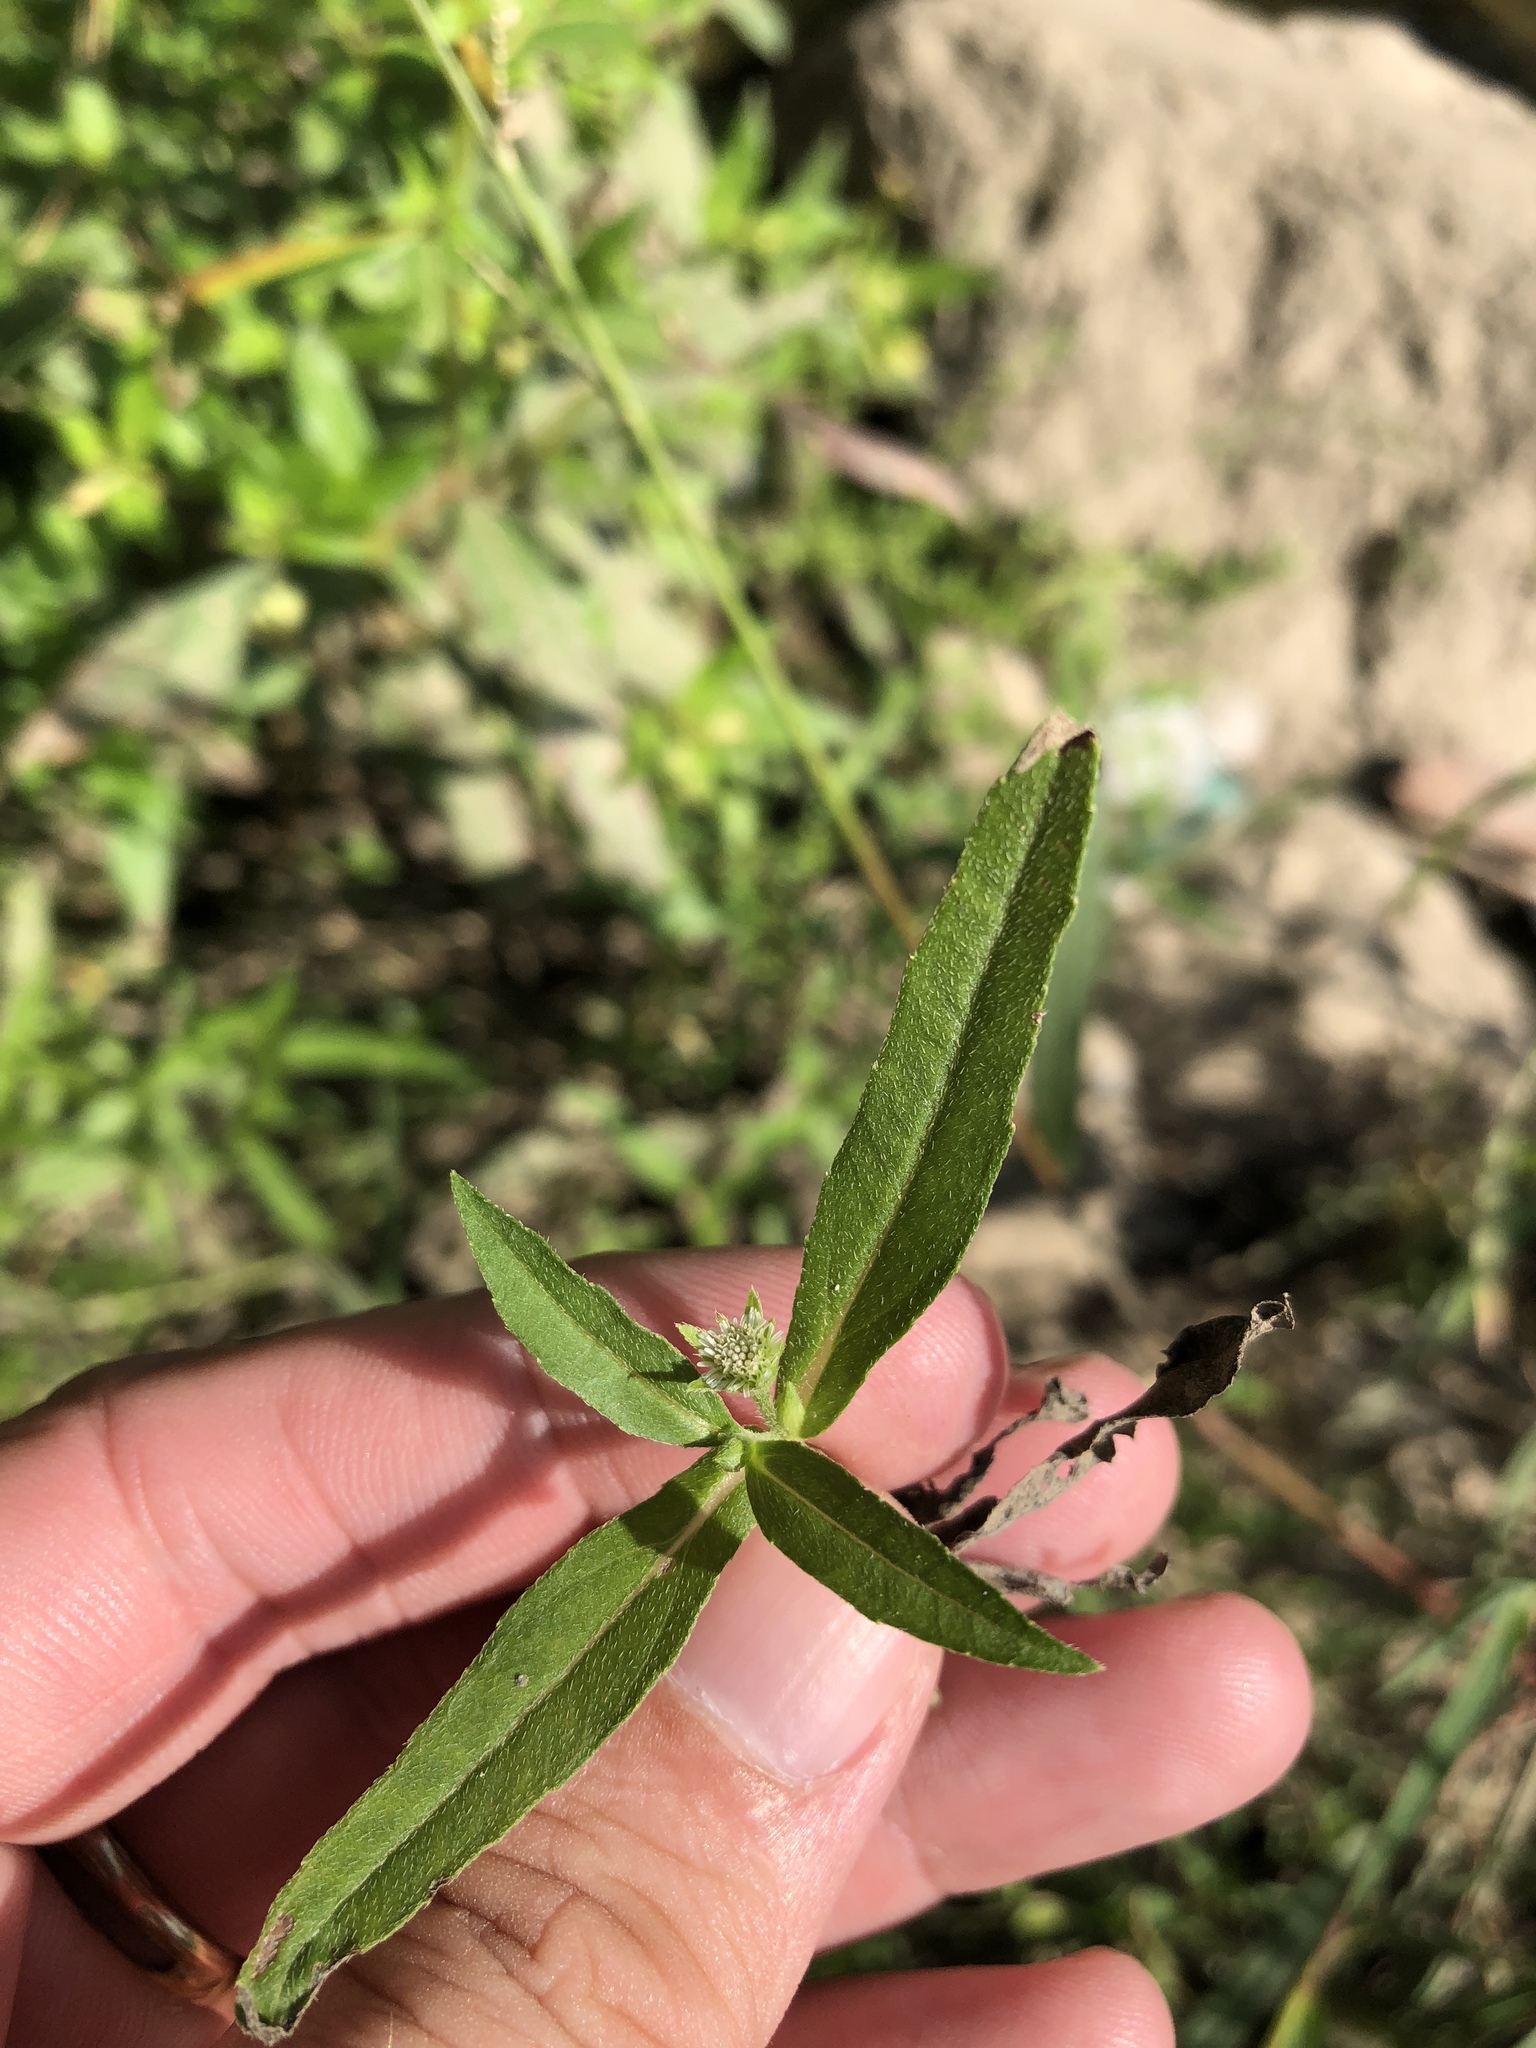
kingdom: Plantae
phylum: Tracheophyta
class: Magnoliopsida
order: Asterales
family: Asteraceae
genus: Eclipta
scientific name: Eclipta prostrata
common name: False daisy
